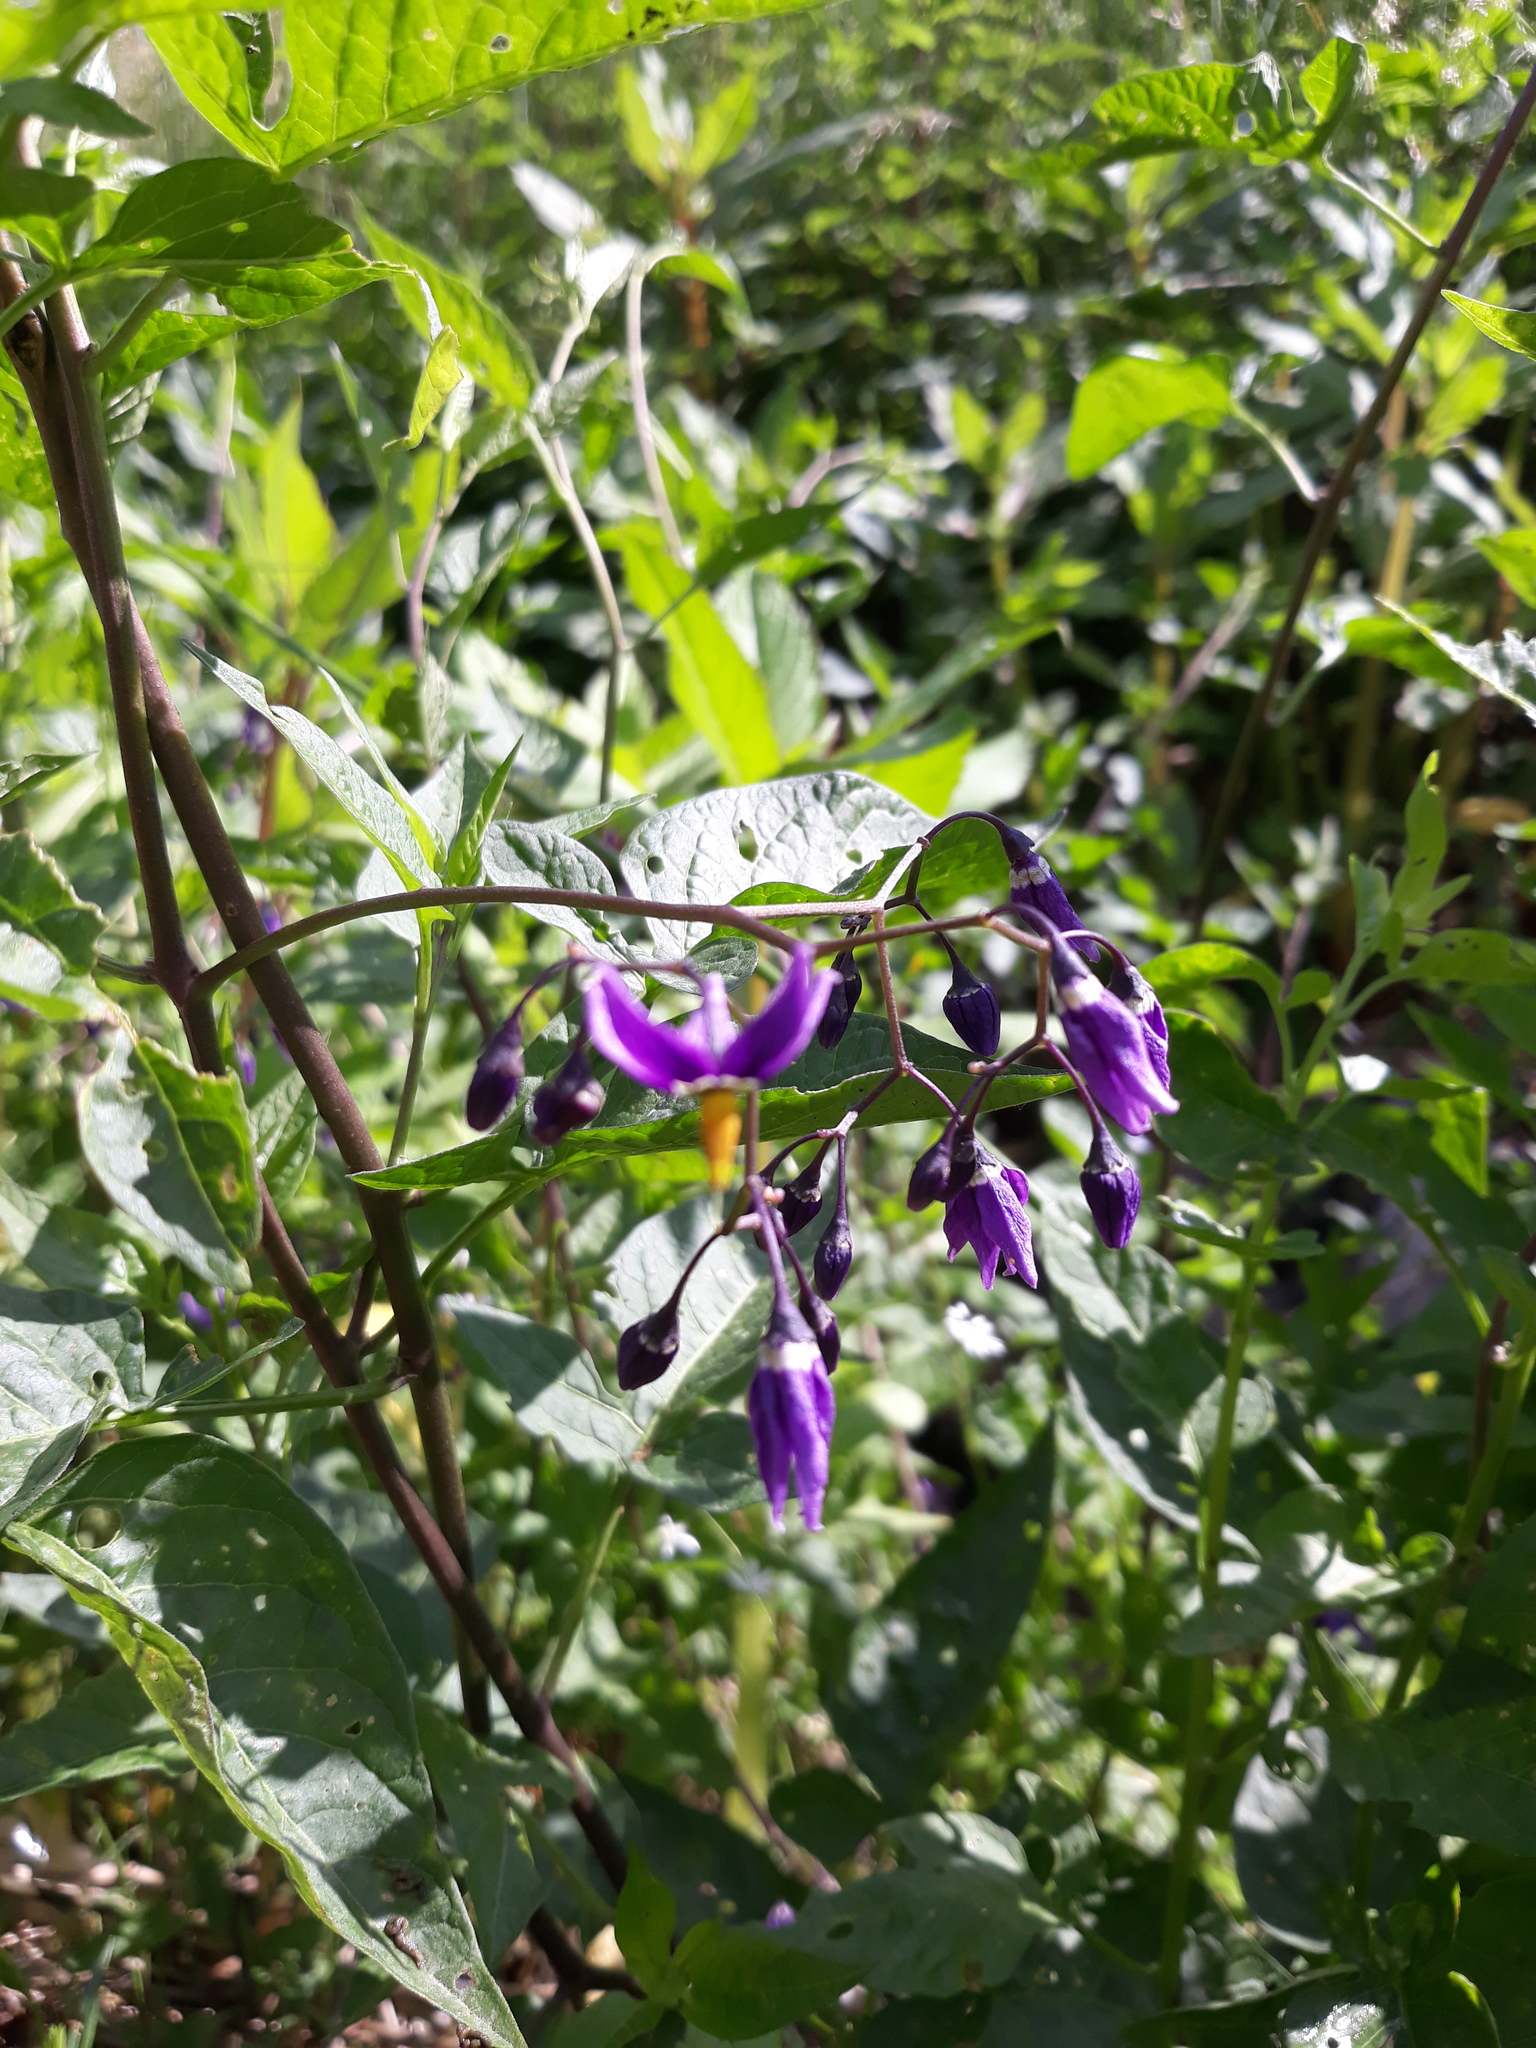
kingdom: Plantae
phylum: Tracheophyta
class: Magnoliopsida
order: Solanales
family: Solanaceae
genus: Solanum
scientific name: Solanum dulcamara
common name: Climbing nightshade
